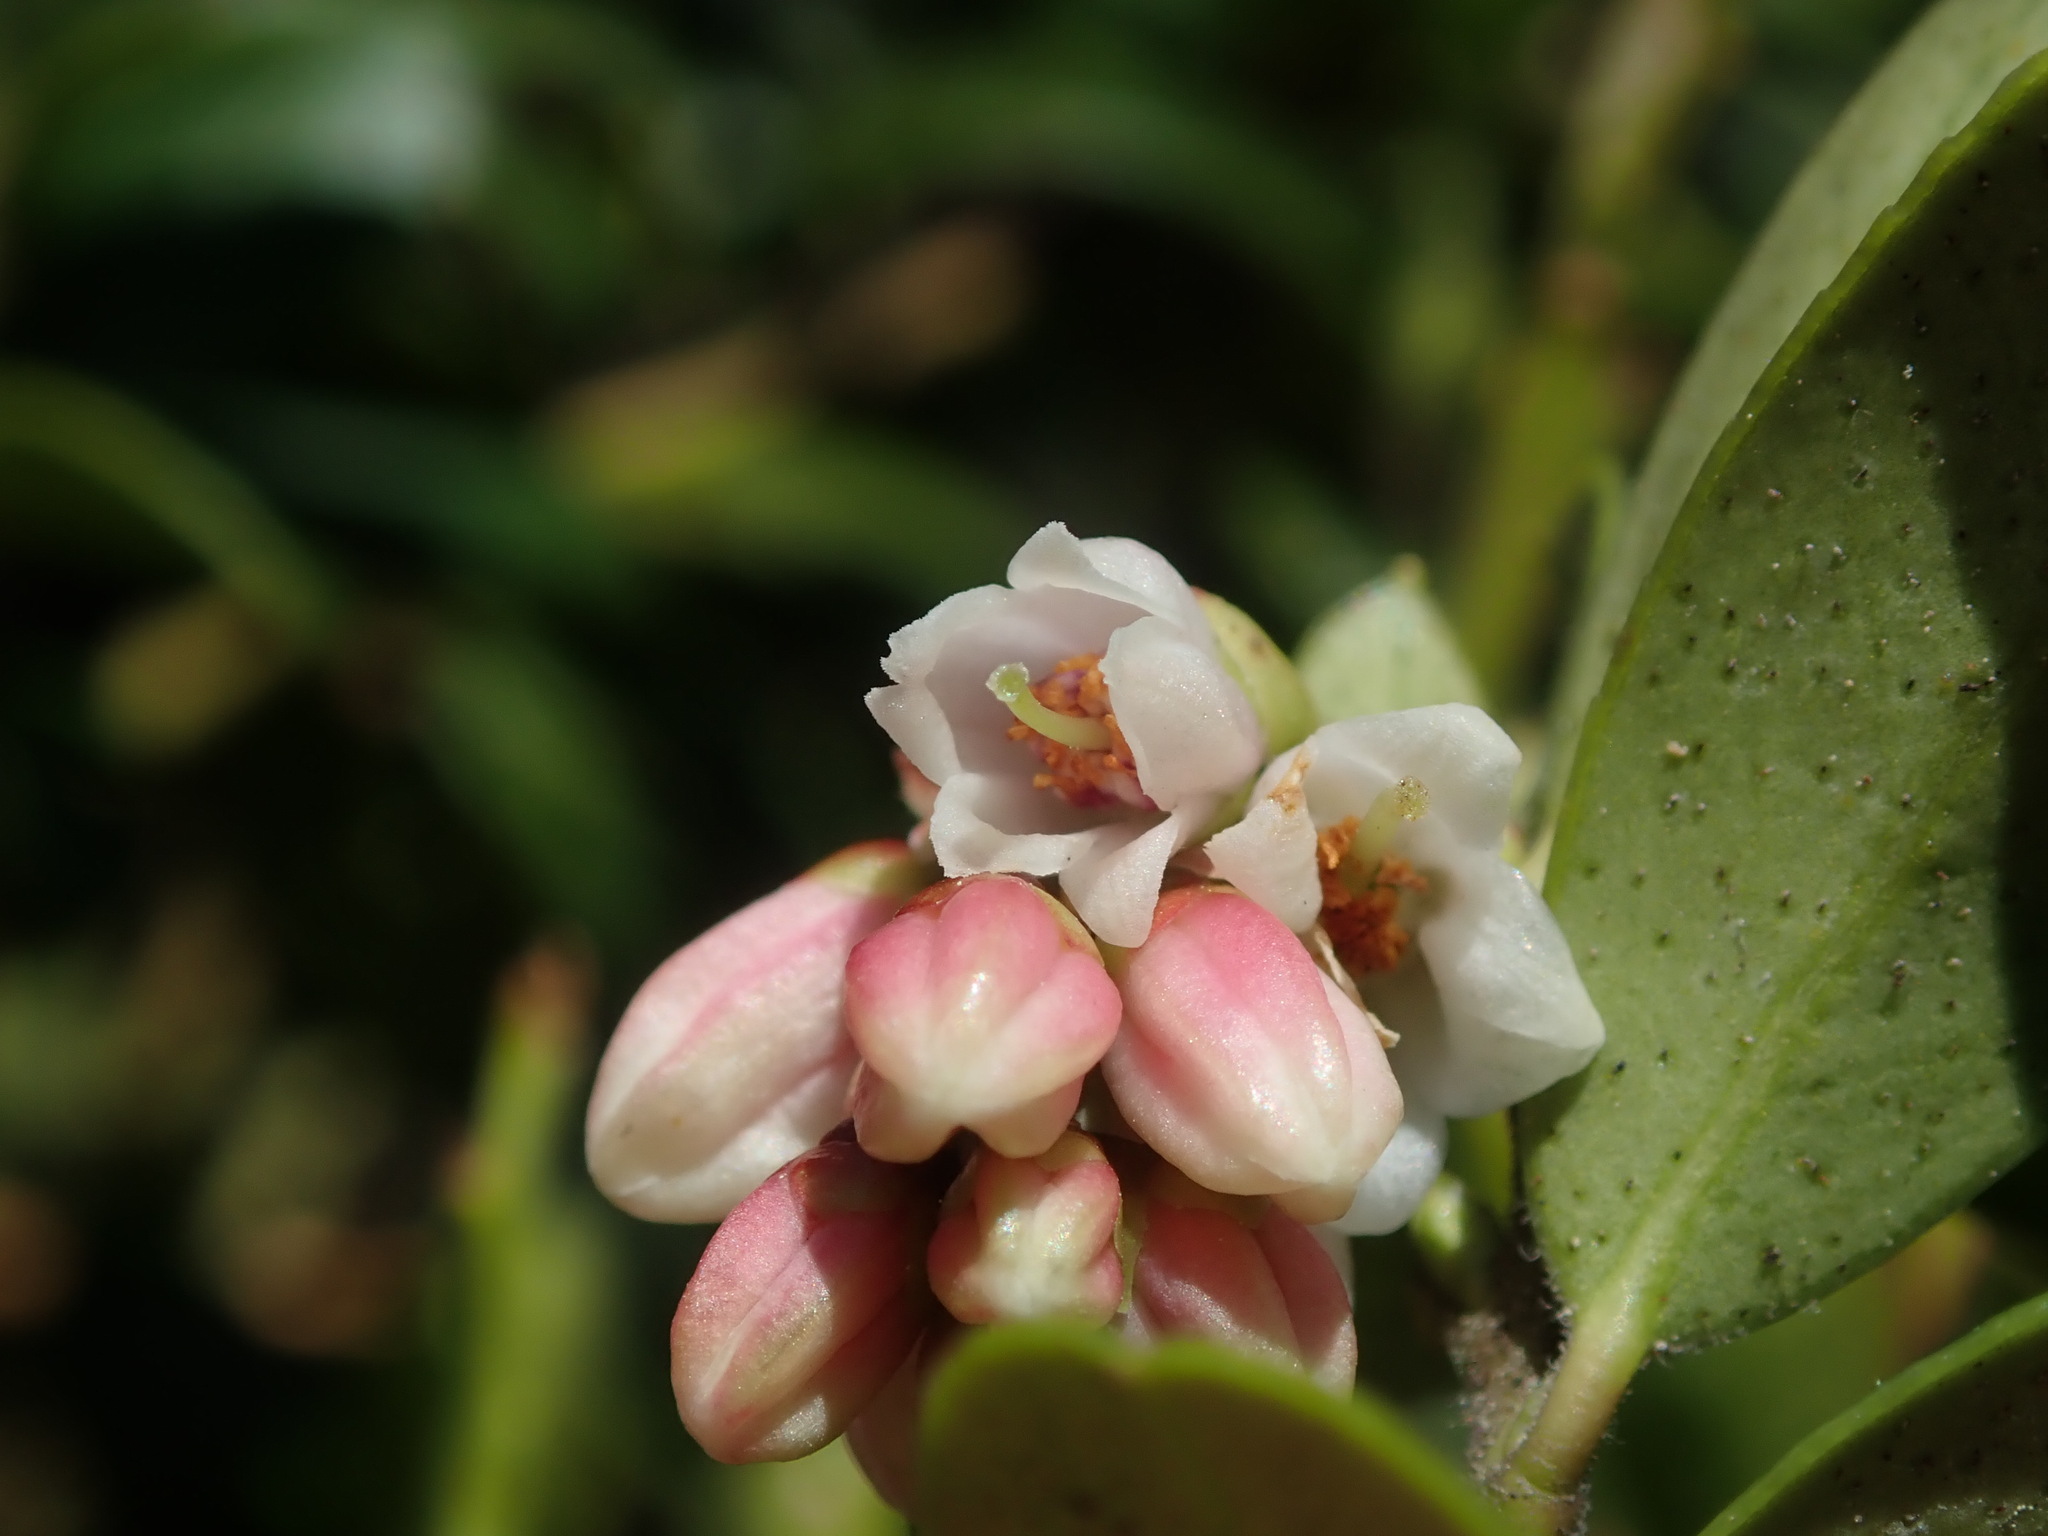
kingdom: Plantae
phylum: Tracheophyta
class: Magnoliopsida
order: Ericales
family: Ericaceae
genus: Vaccinium
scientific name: Vaccinium vitis-idaea
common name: Cowberry
